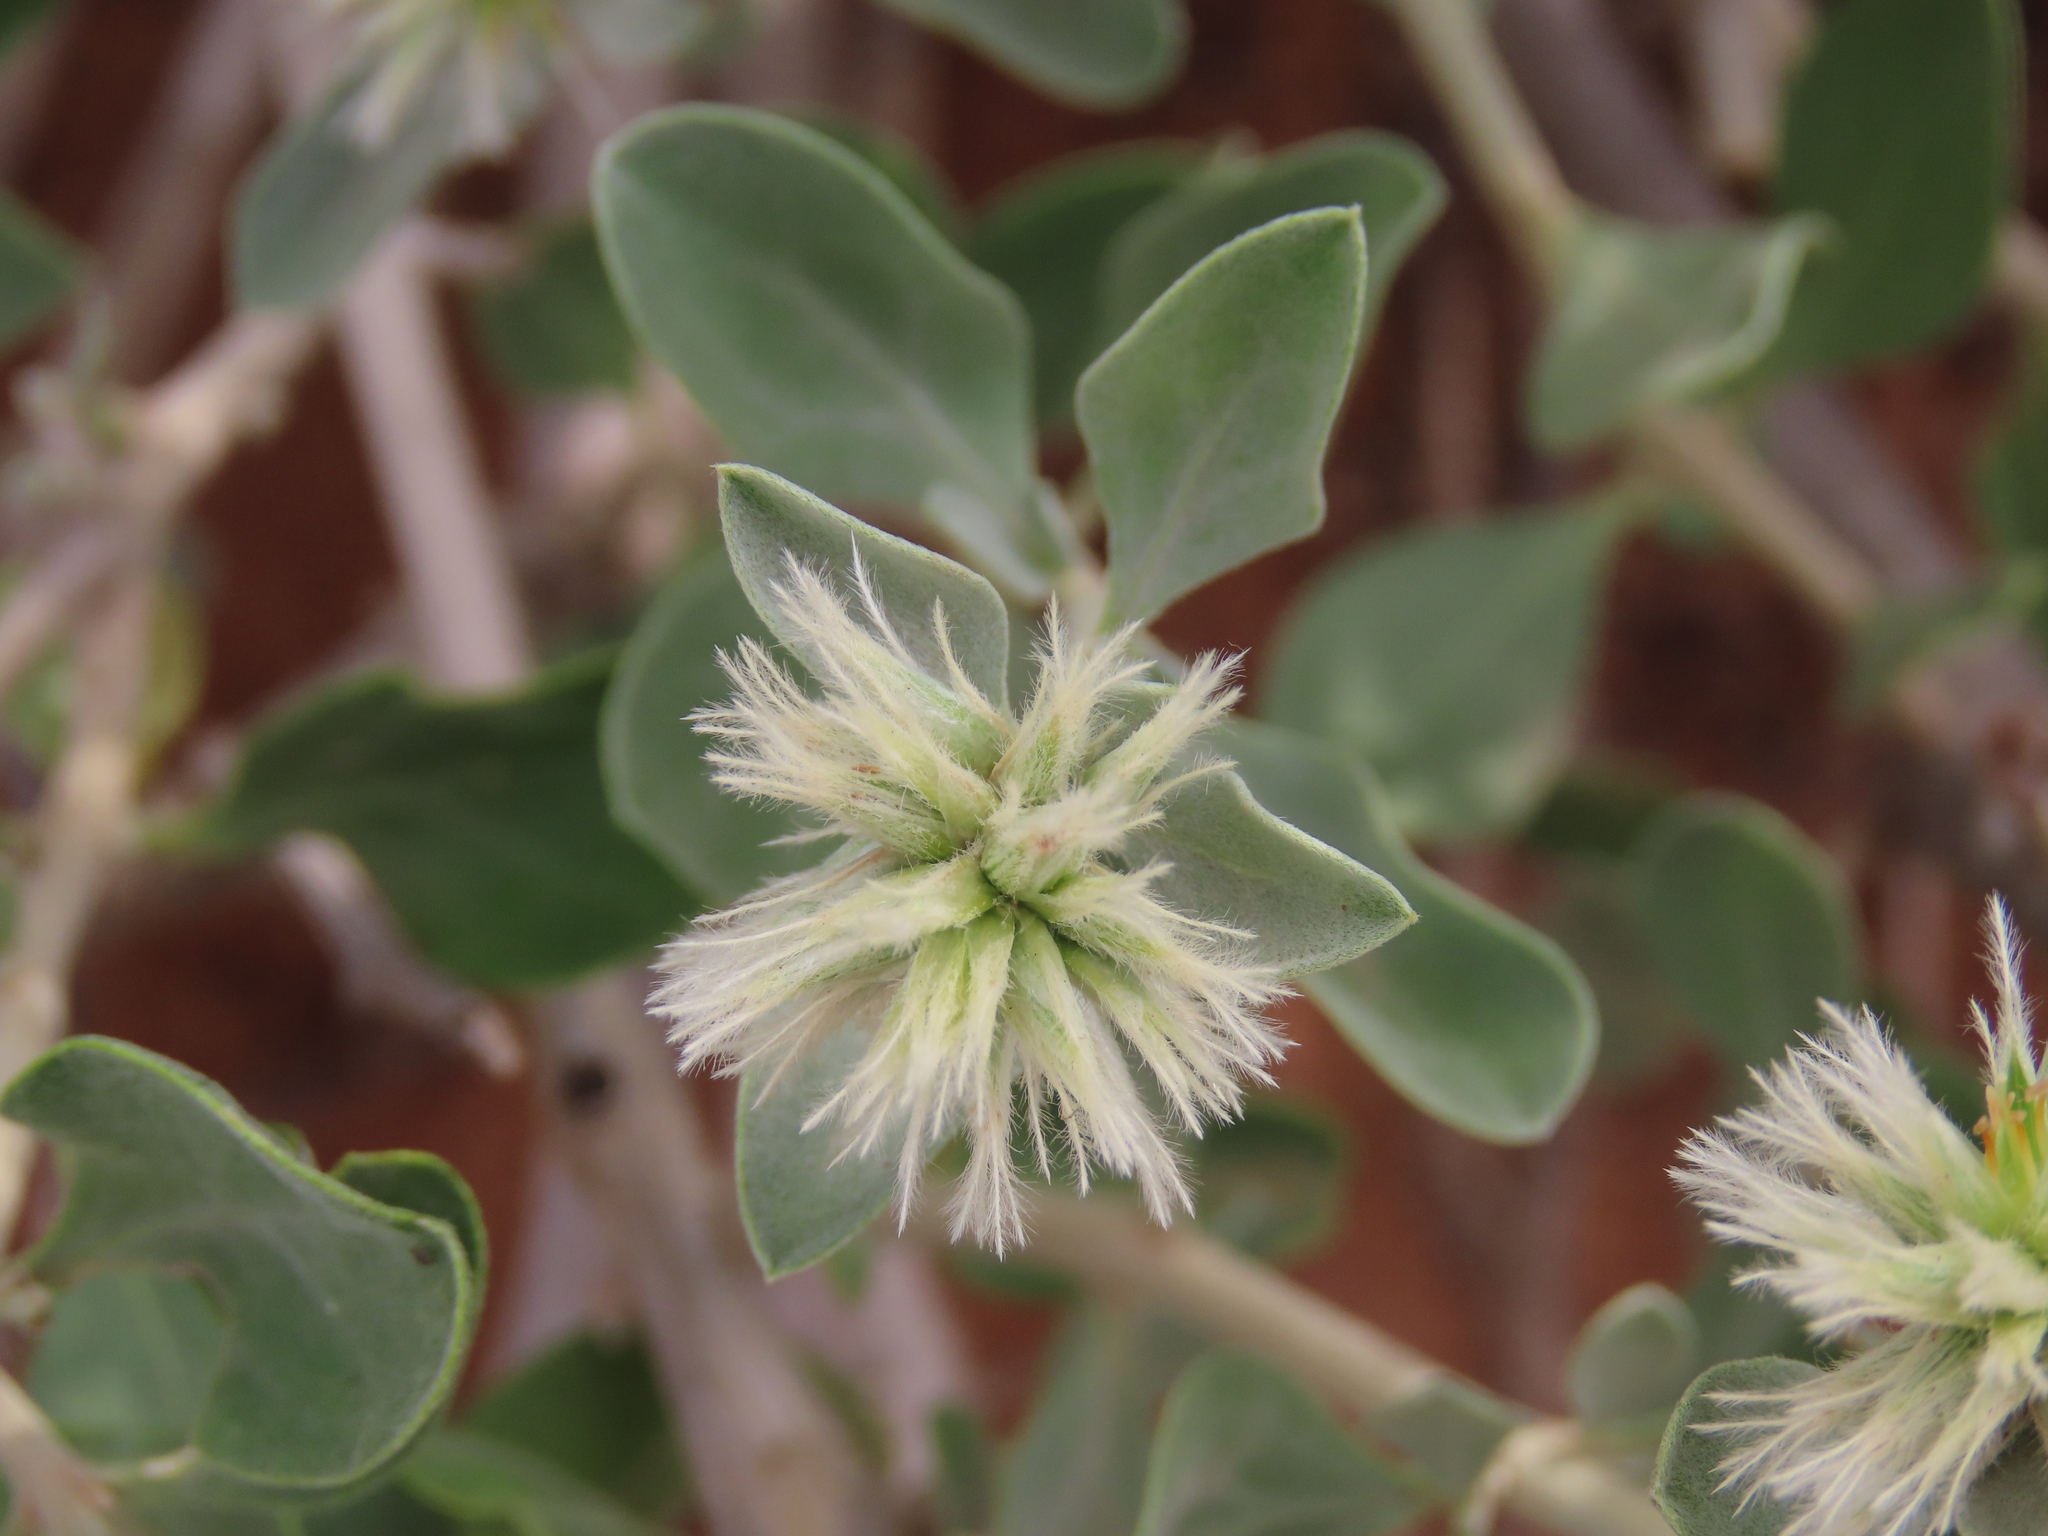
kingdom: Plantae
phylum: Tracheophyta
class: Magnoliopsida
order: Caryophyllales
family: Amaranthaceae
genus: Leucosphaera
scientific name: Leucosphaera bainesii
